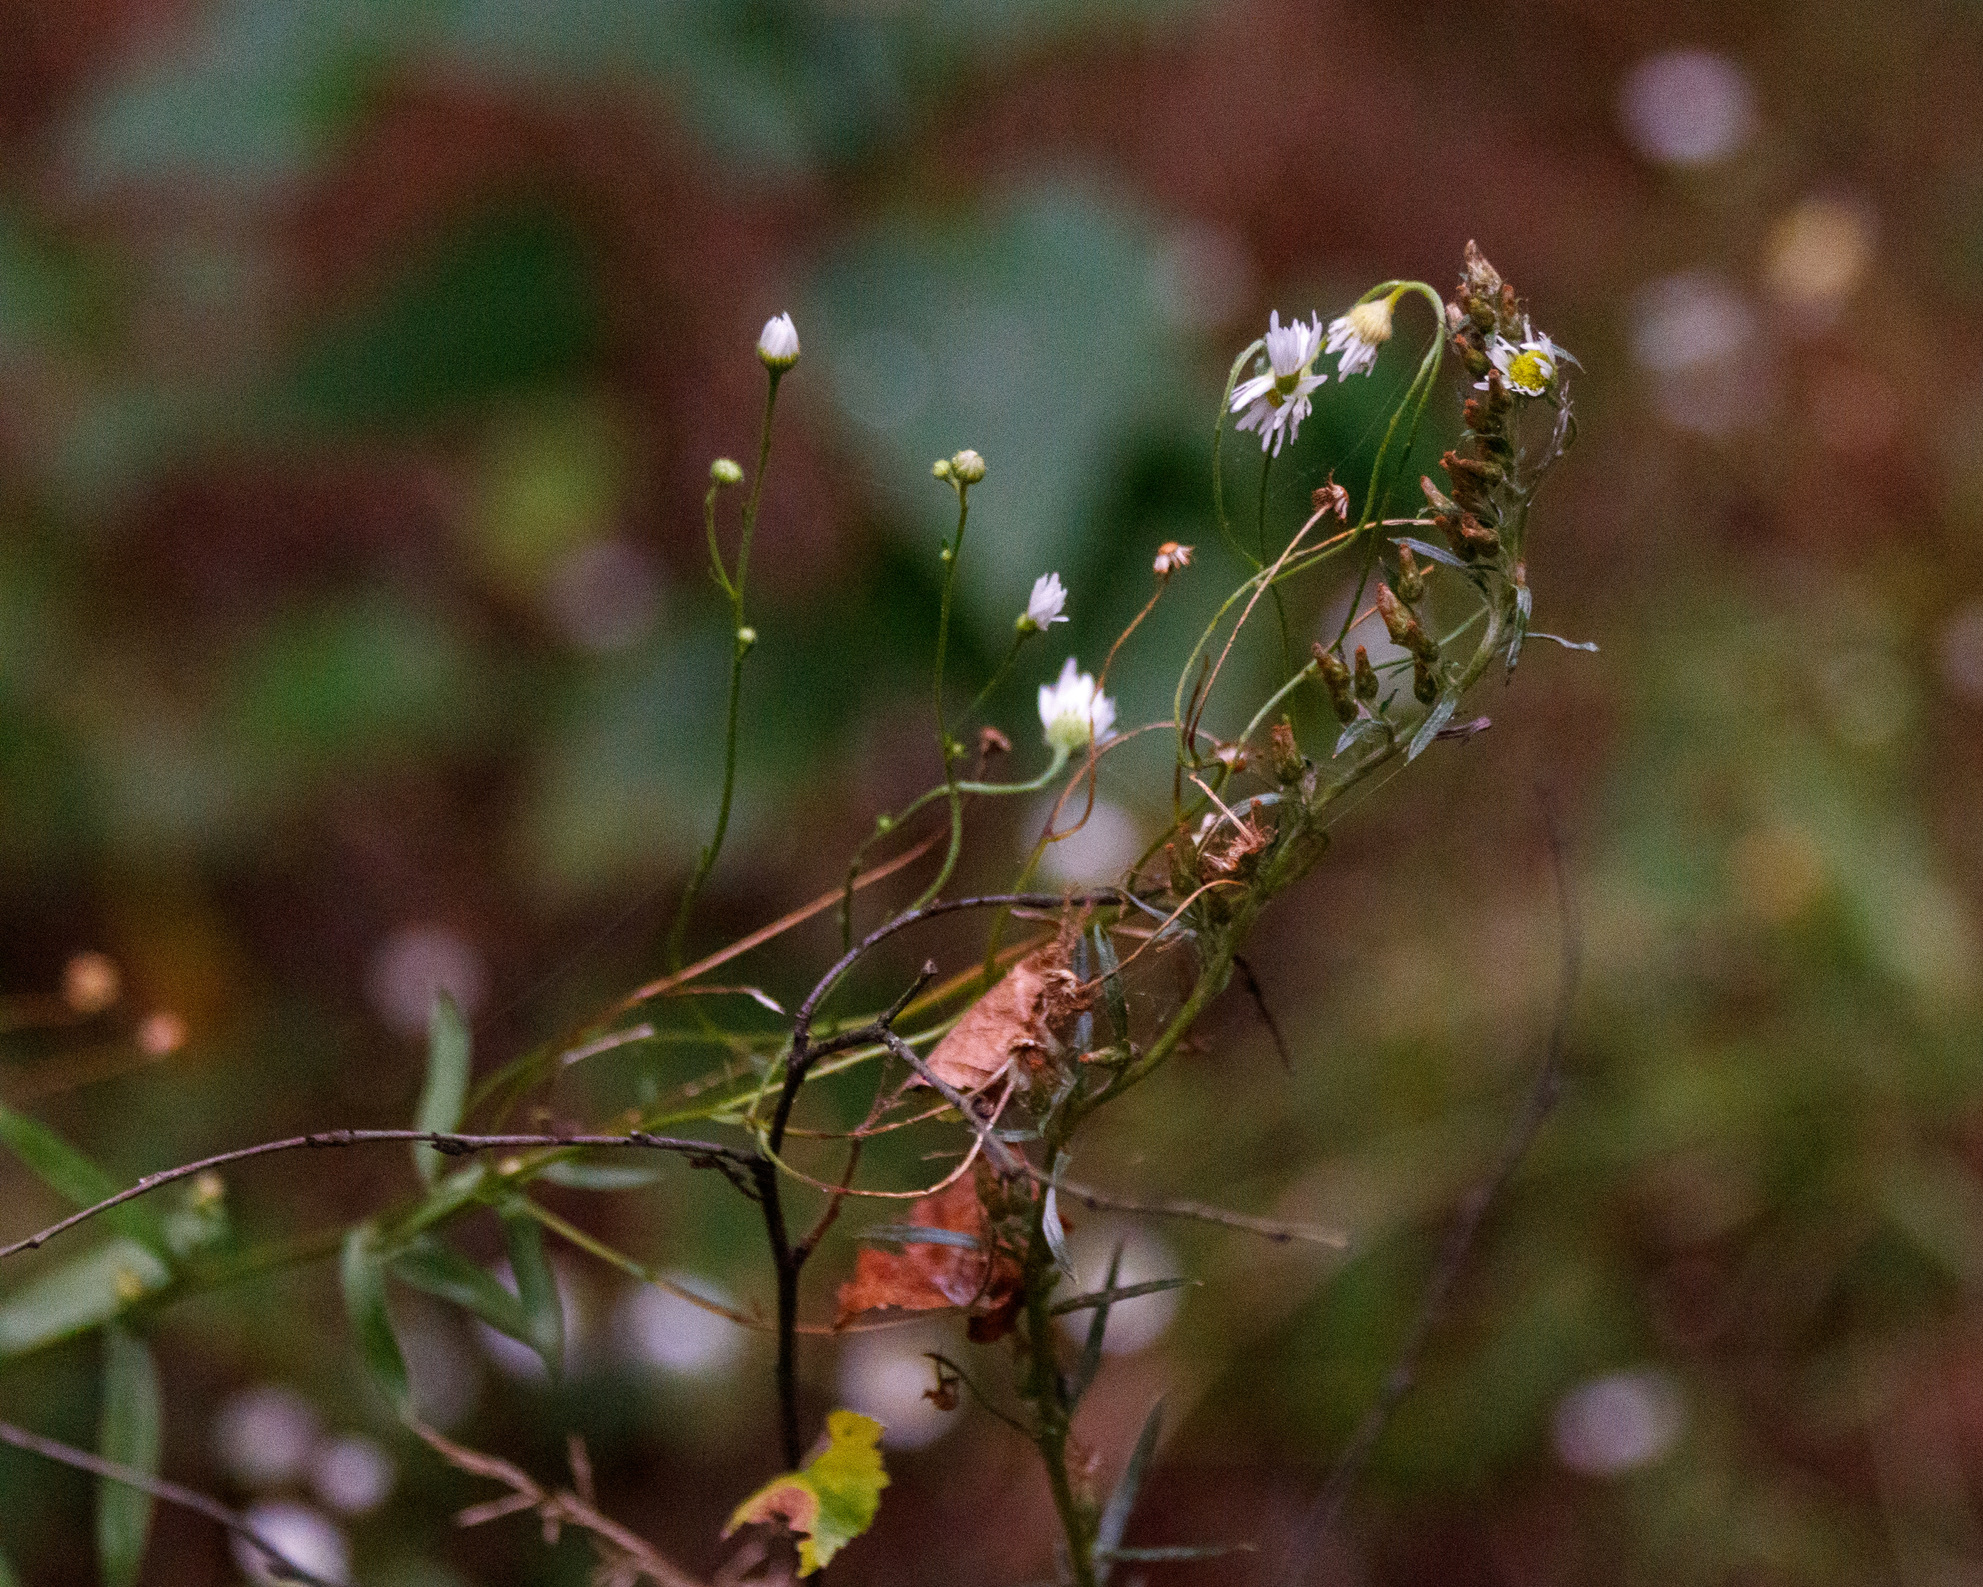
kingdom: Plantae
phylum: Tracheophyta
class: Magnoliopsida
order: Asterales
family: Asteraceae
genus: Erigeron
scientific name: Erigeron annuus
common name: Tall fleabane
